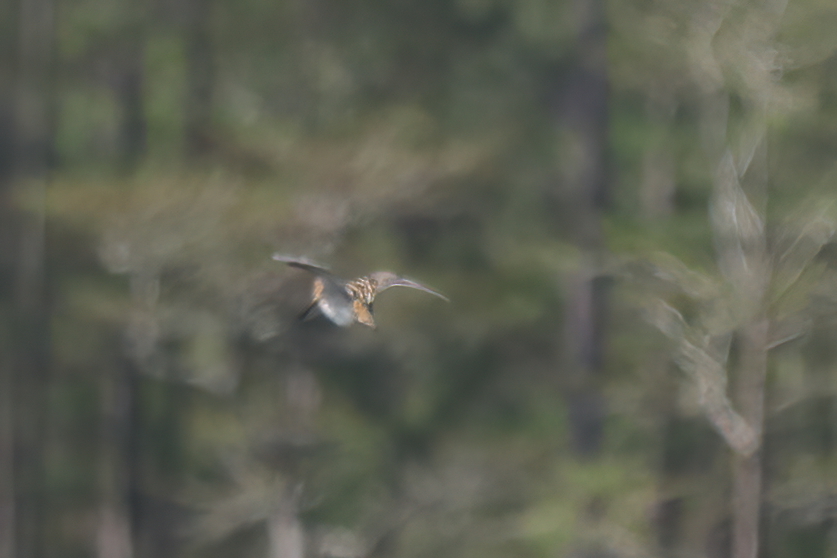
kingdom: Animalia
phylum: Chordata
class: Aves
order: Charadriiformes
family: Scolopacidae
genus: Gallinago
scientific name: Gallinago delicata
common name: Wilson's snipe
